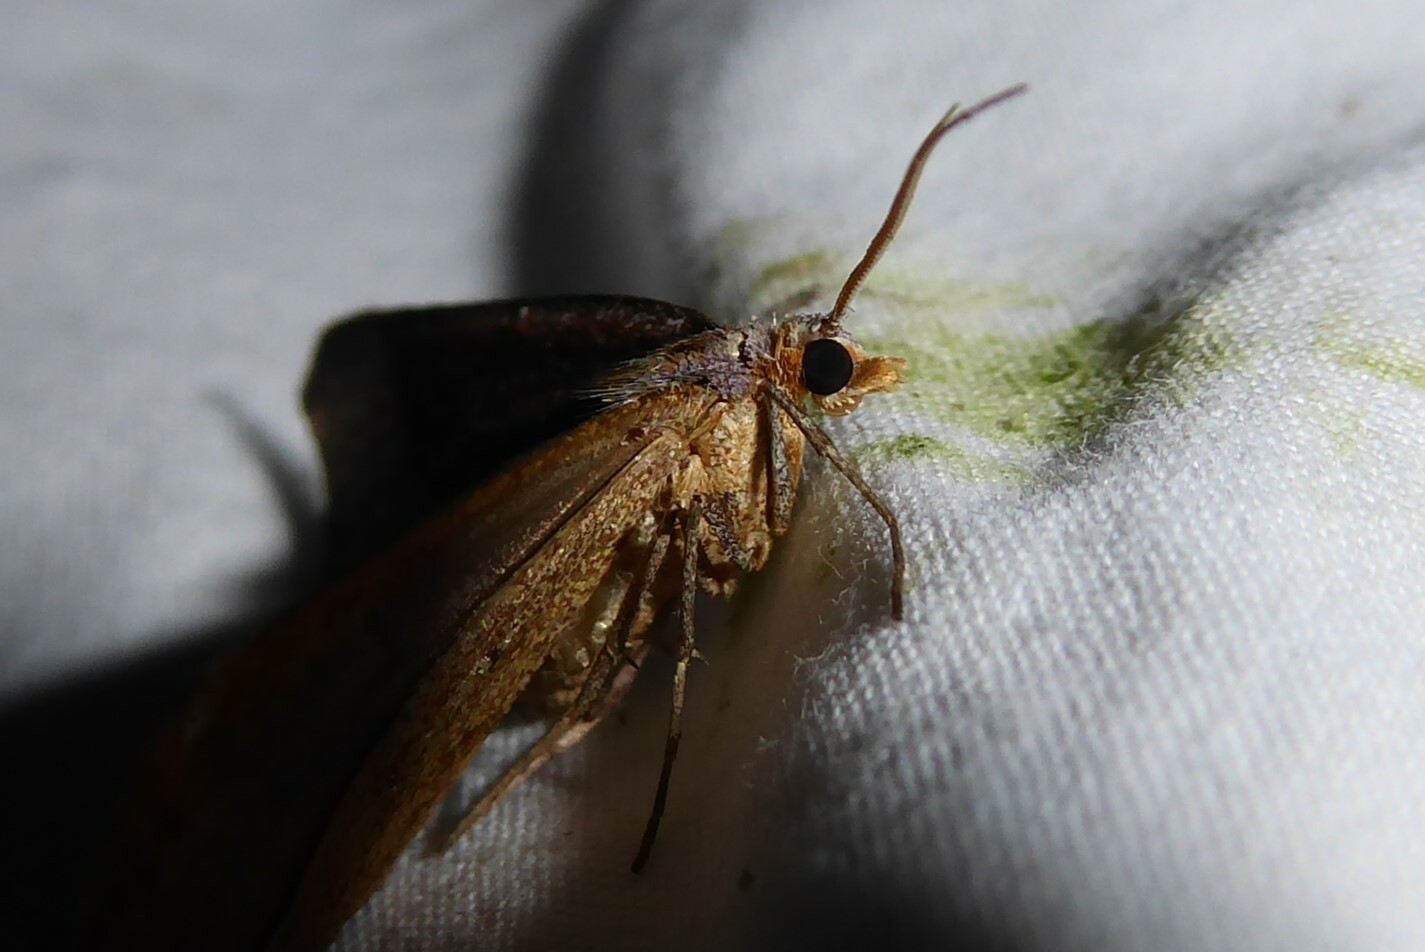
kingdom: Animalia
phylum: Arthropoda
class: Insecta
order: Lepidoptera
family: Geometridae
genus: Anachloris
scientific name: Anachloris subochraria
